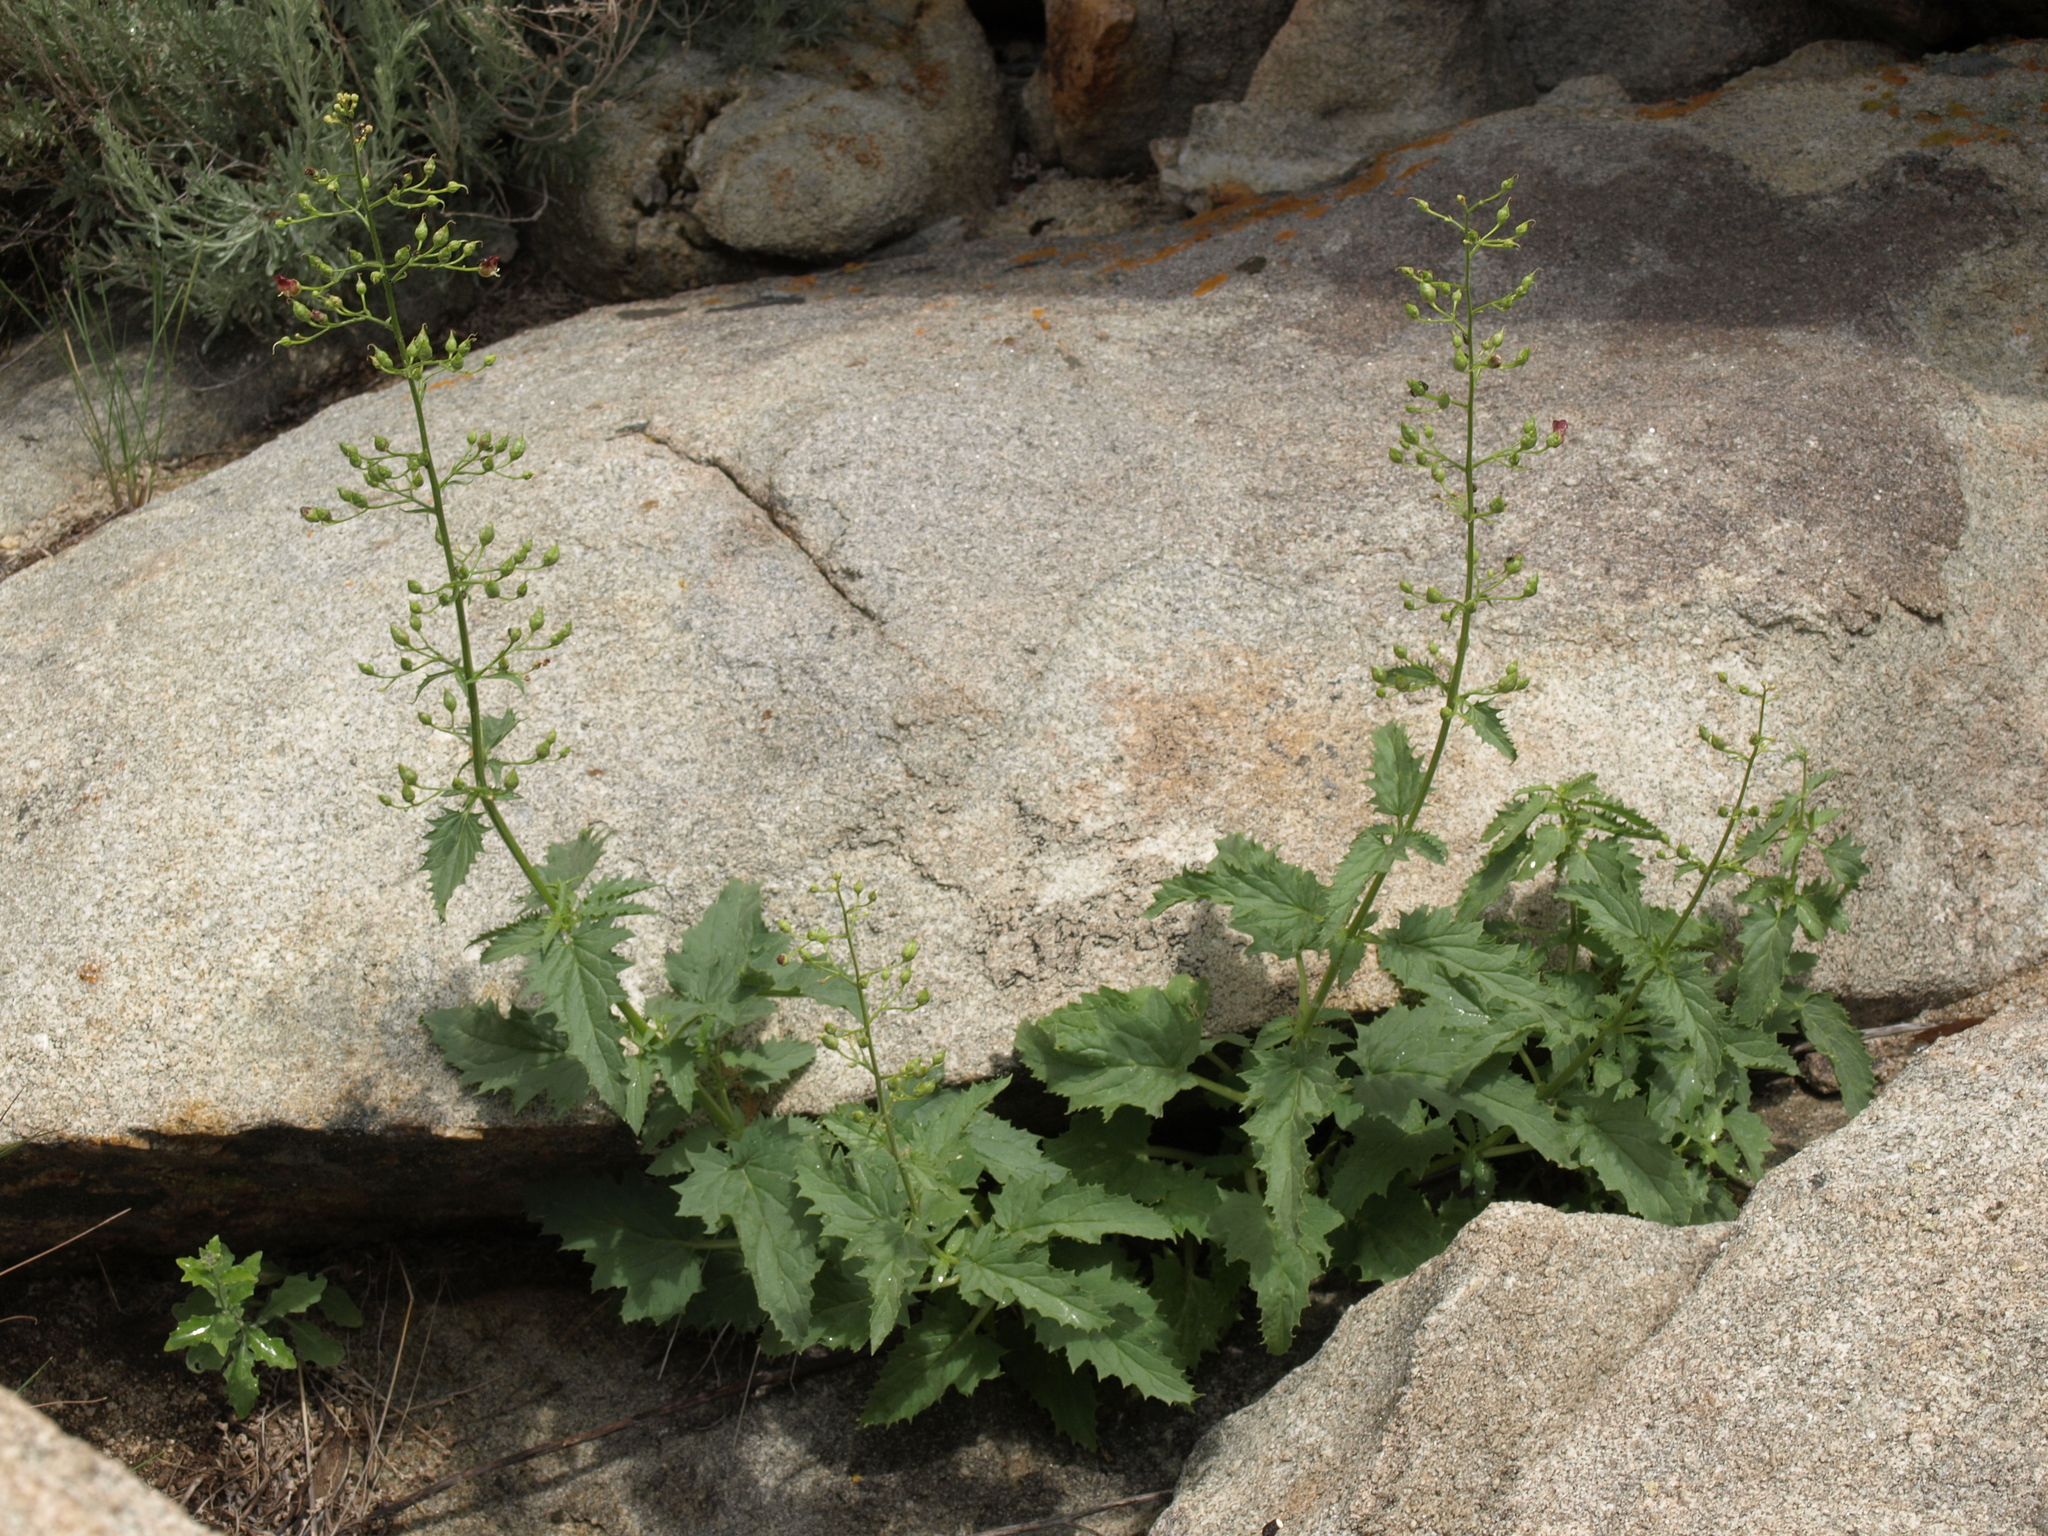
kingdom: Plantae
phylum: Tracheophyta
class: Magnoliopsida
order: Lamiales
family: Scrophulariaceae
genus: Scrophularia
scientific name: Scrophularia desertorum
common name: Desert figwort
